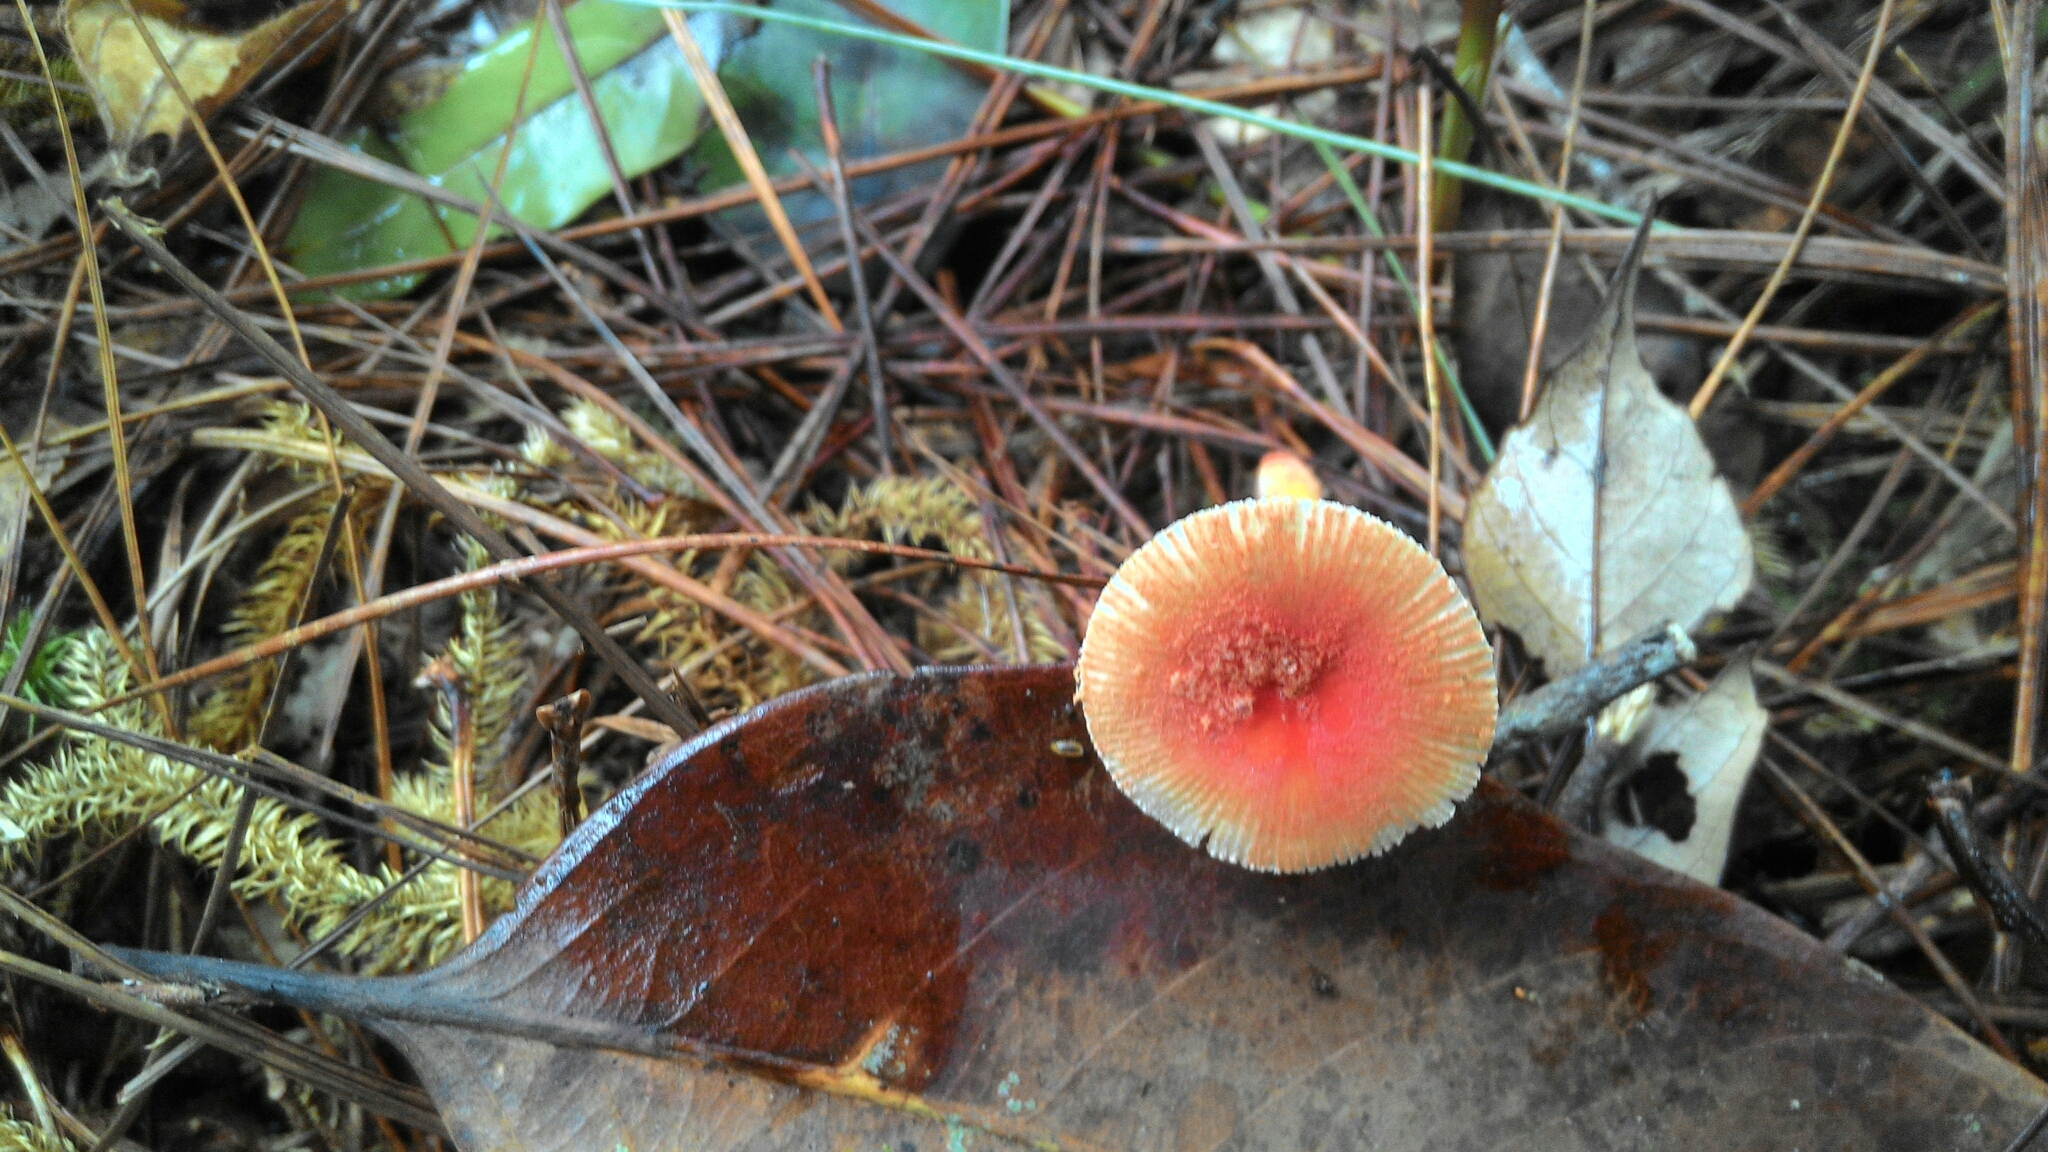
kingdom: Fungi
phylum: Basidiomycota
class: Agaricomycetes
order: Agaricales
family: Amanitaceae
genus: Amanita
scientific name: Amanita rubrovolvata
